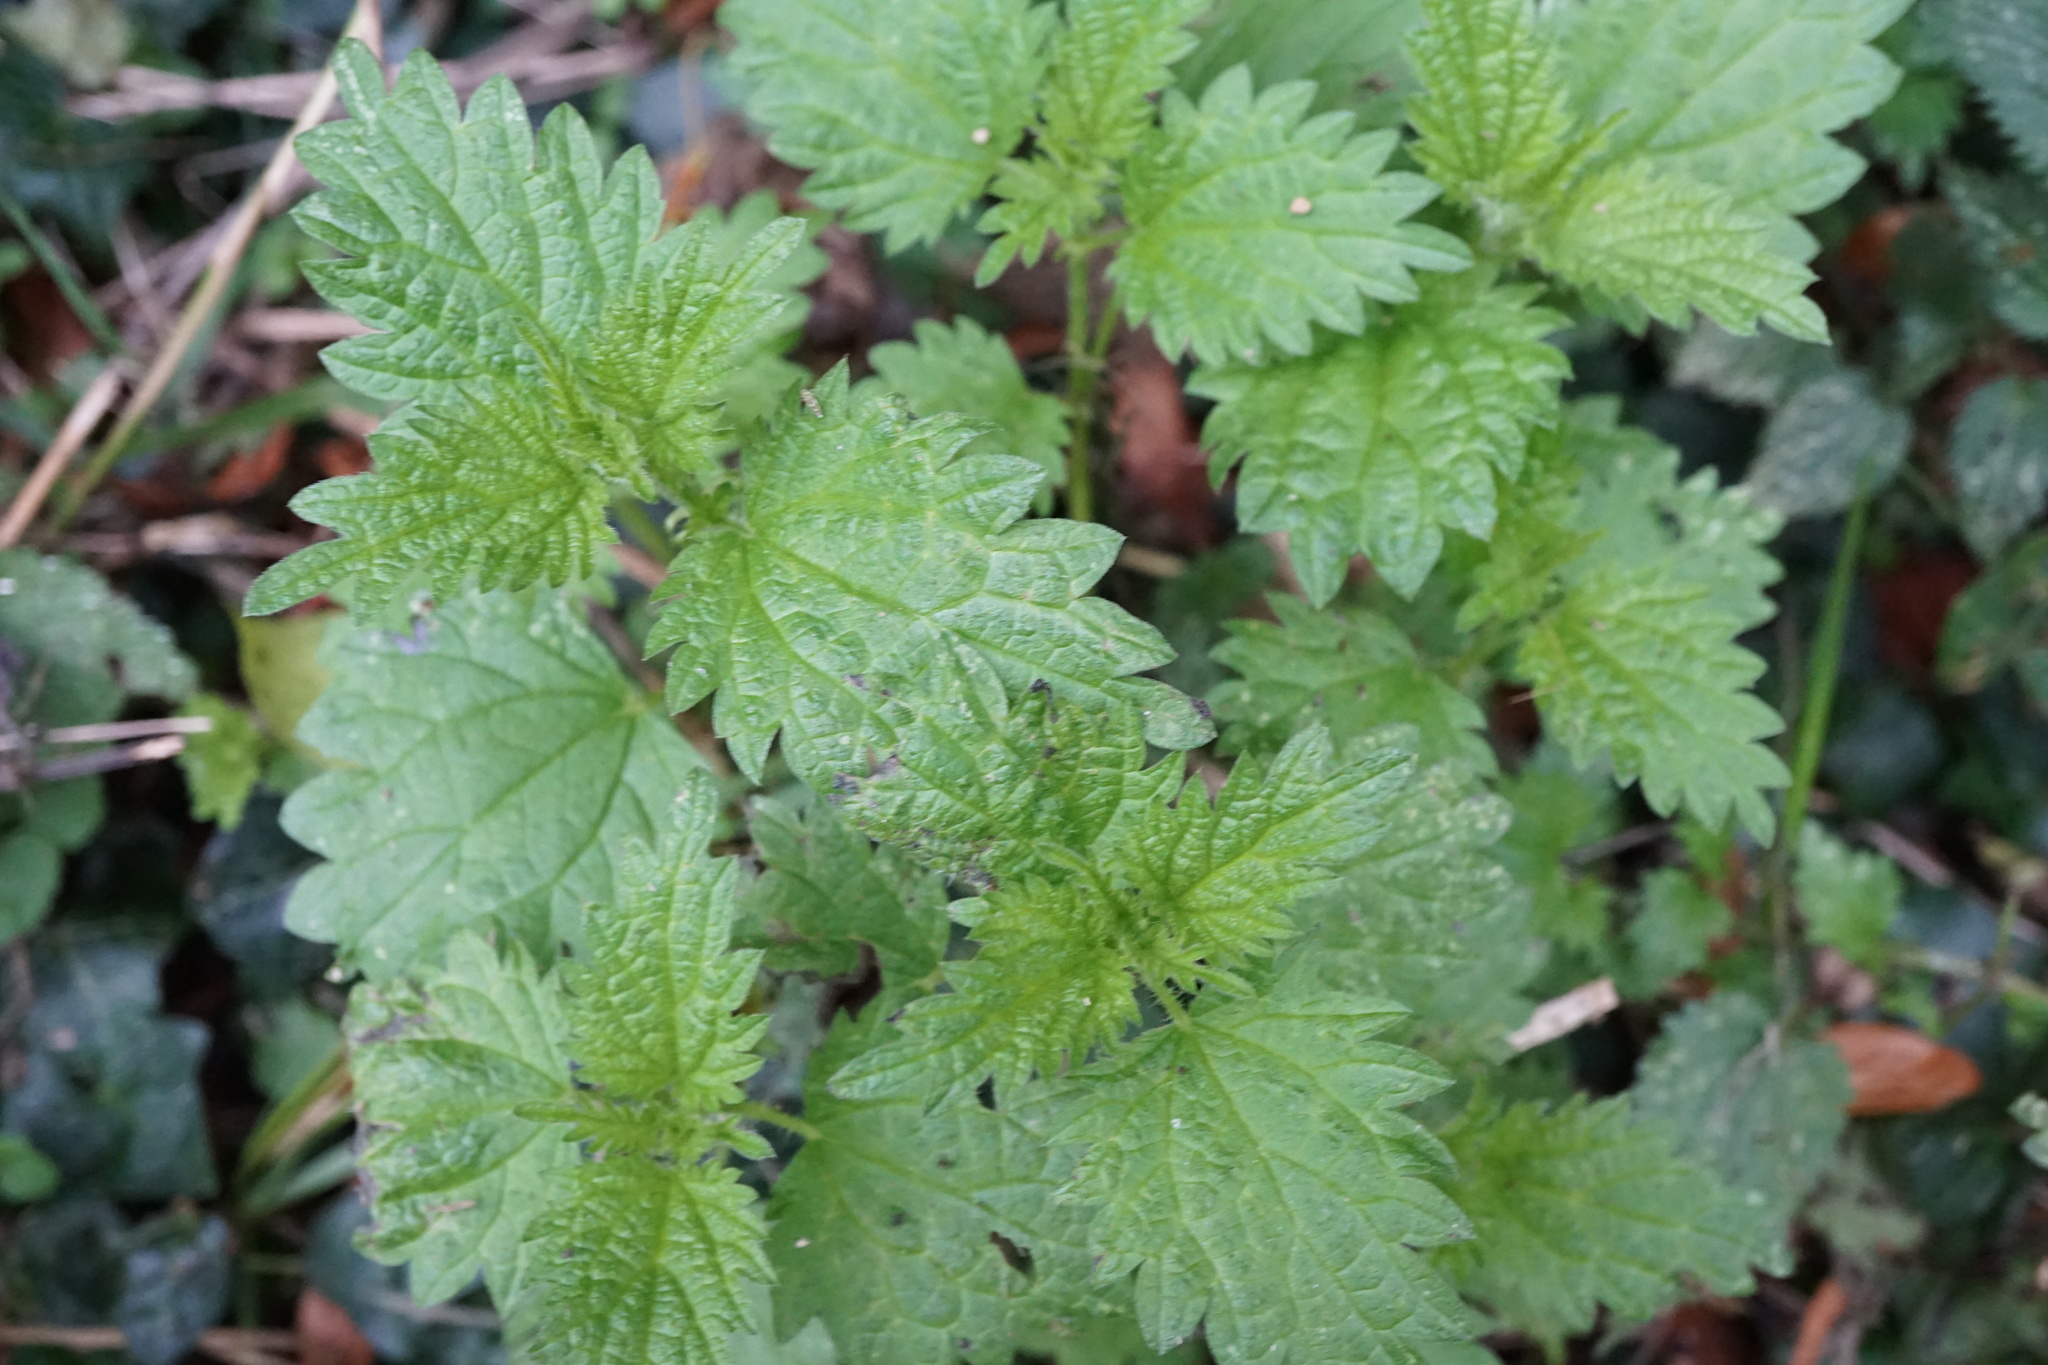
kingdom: Plantae
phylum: Tracheophyta
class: Magnoliopsida
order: Rosales
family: Urticaceae
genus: Urtica
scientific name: Urtica dioica
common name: Common nettle
